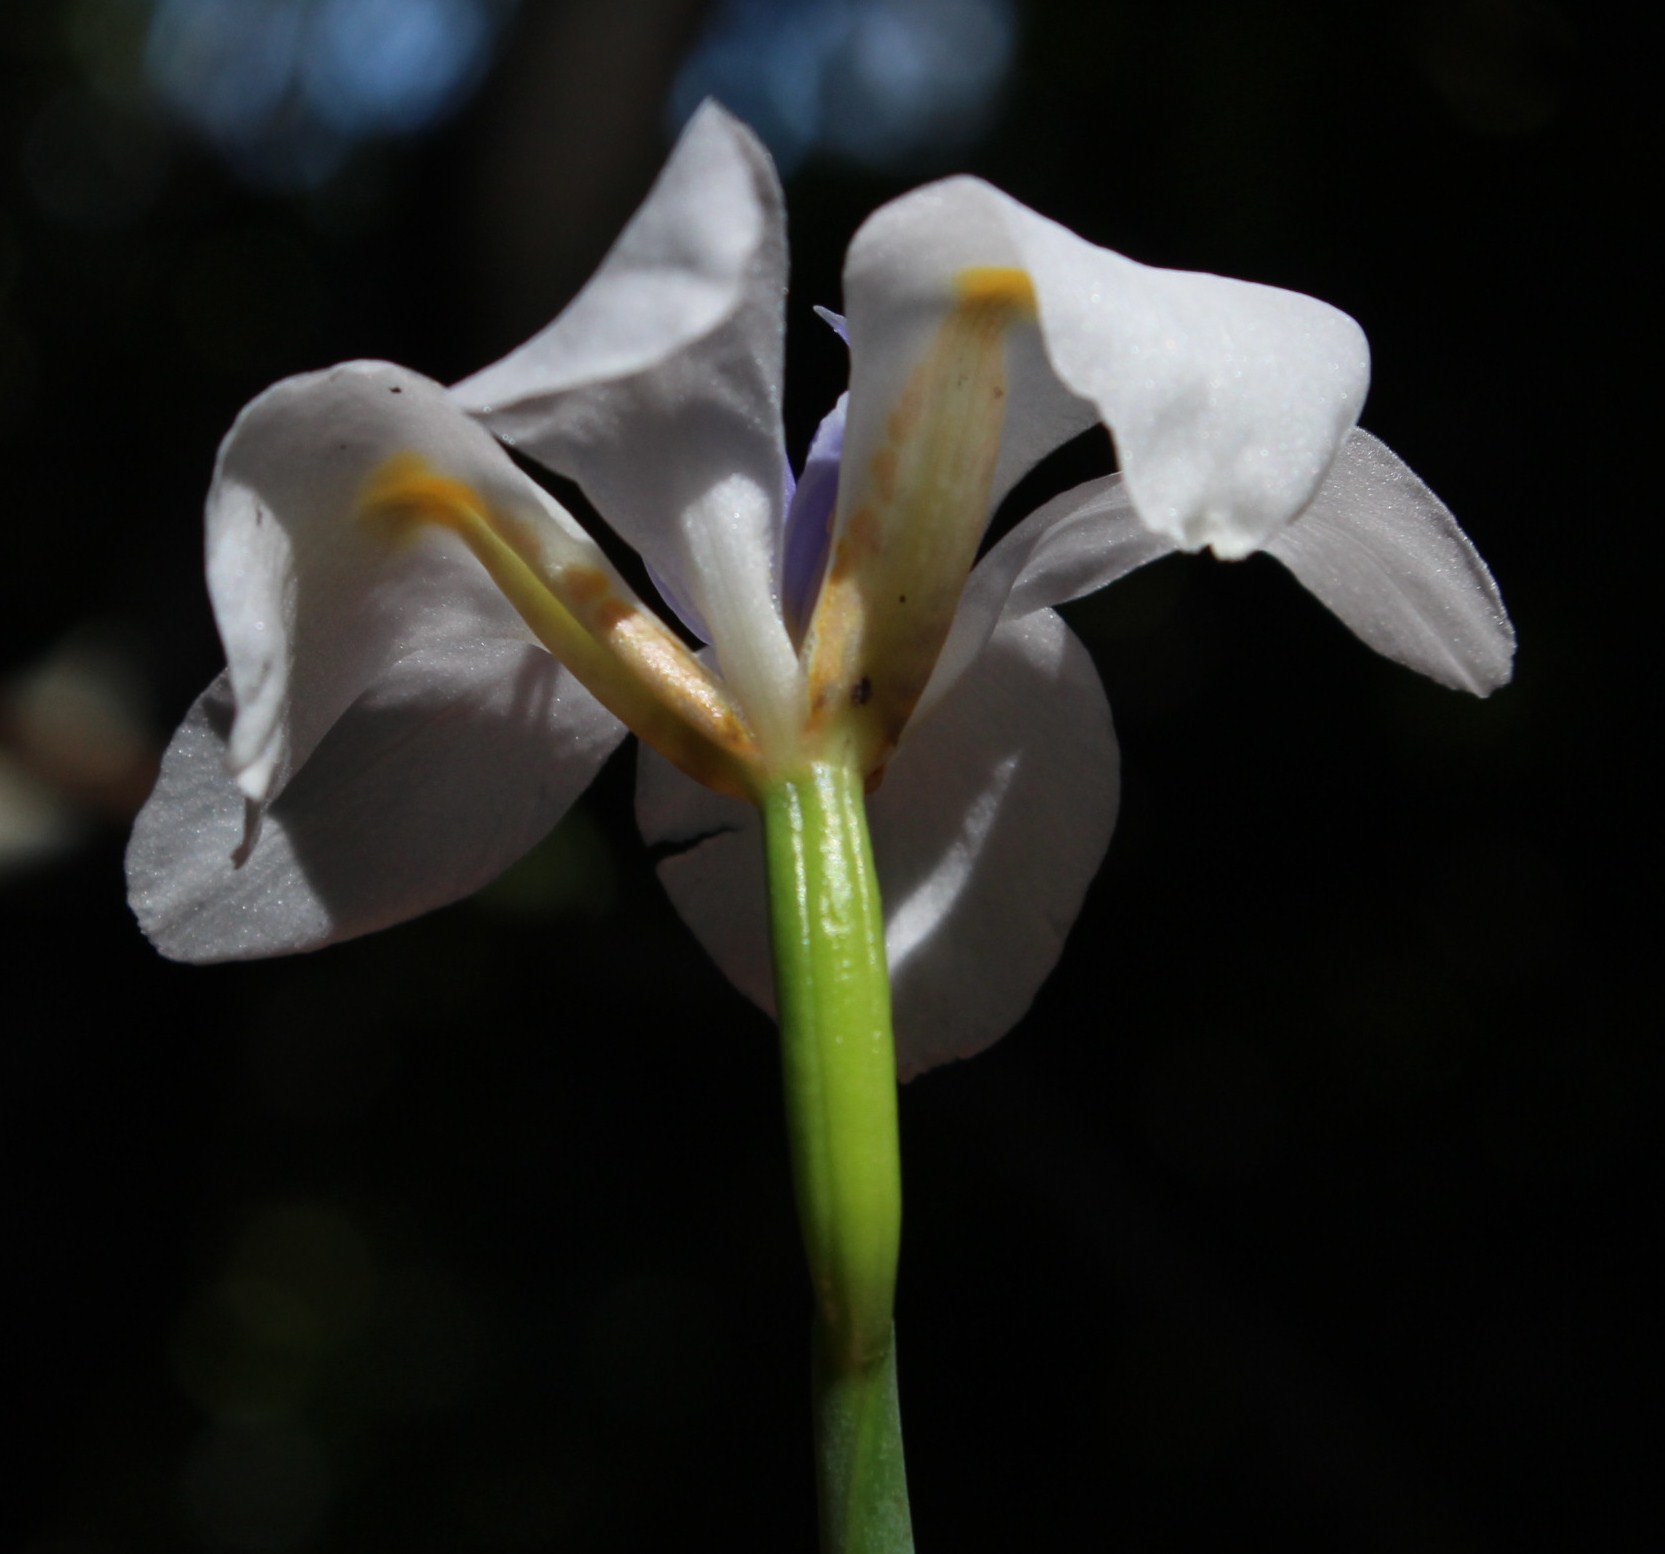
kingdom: Plantae
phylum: Tracheophyta
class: Liliopsida
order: Asparagales
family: Iridaceae
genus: Dietes
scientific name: Dietes iridioides
